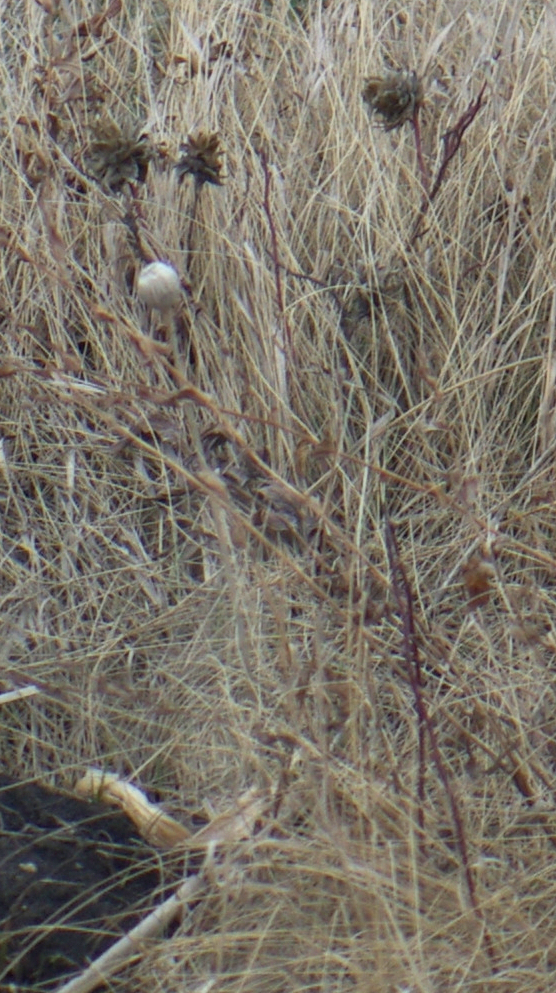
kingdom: Animalia
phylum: Arthropoda
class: Insecta
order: Diptera
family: Cecidomyiidae
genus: Rabdophaga
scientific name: Rabdophaga rosacea
